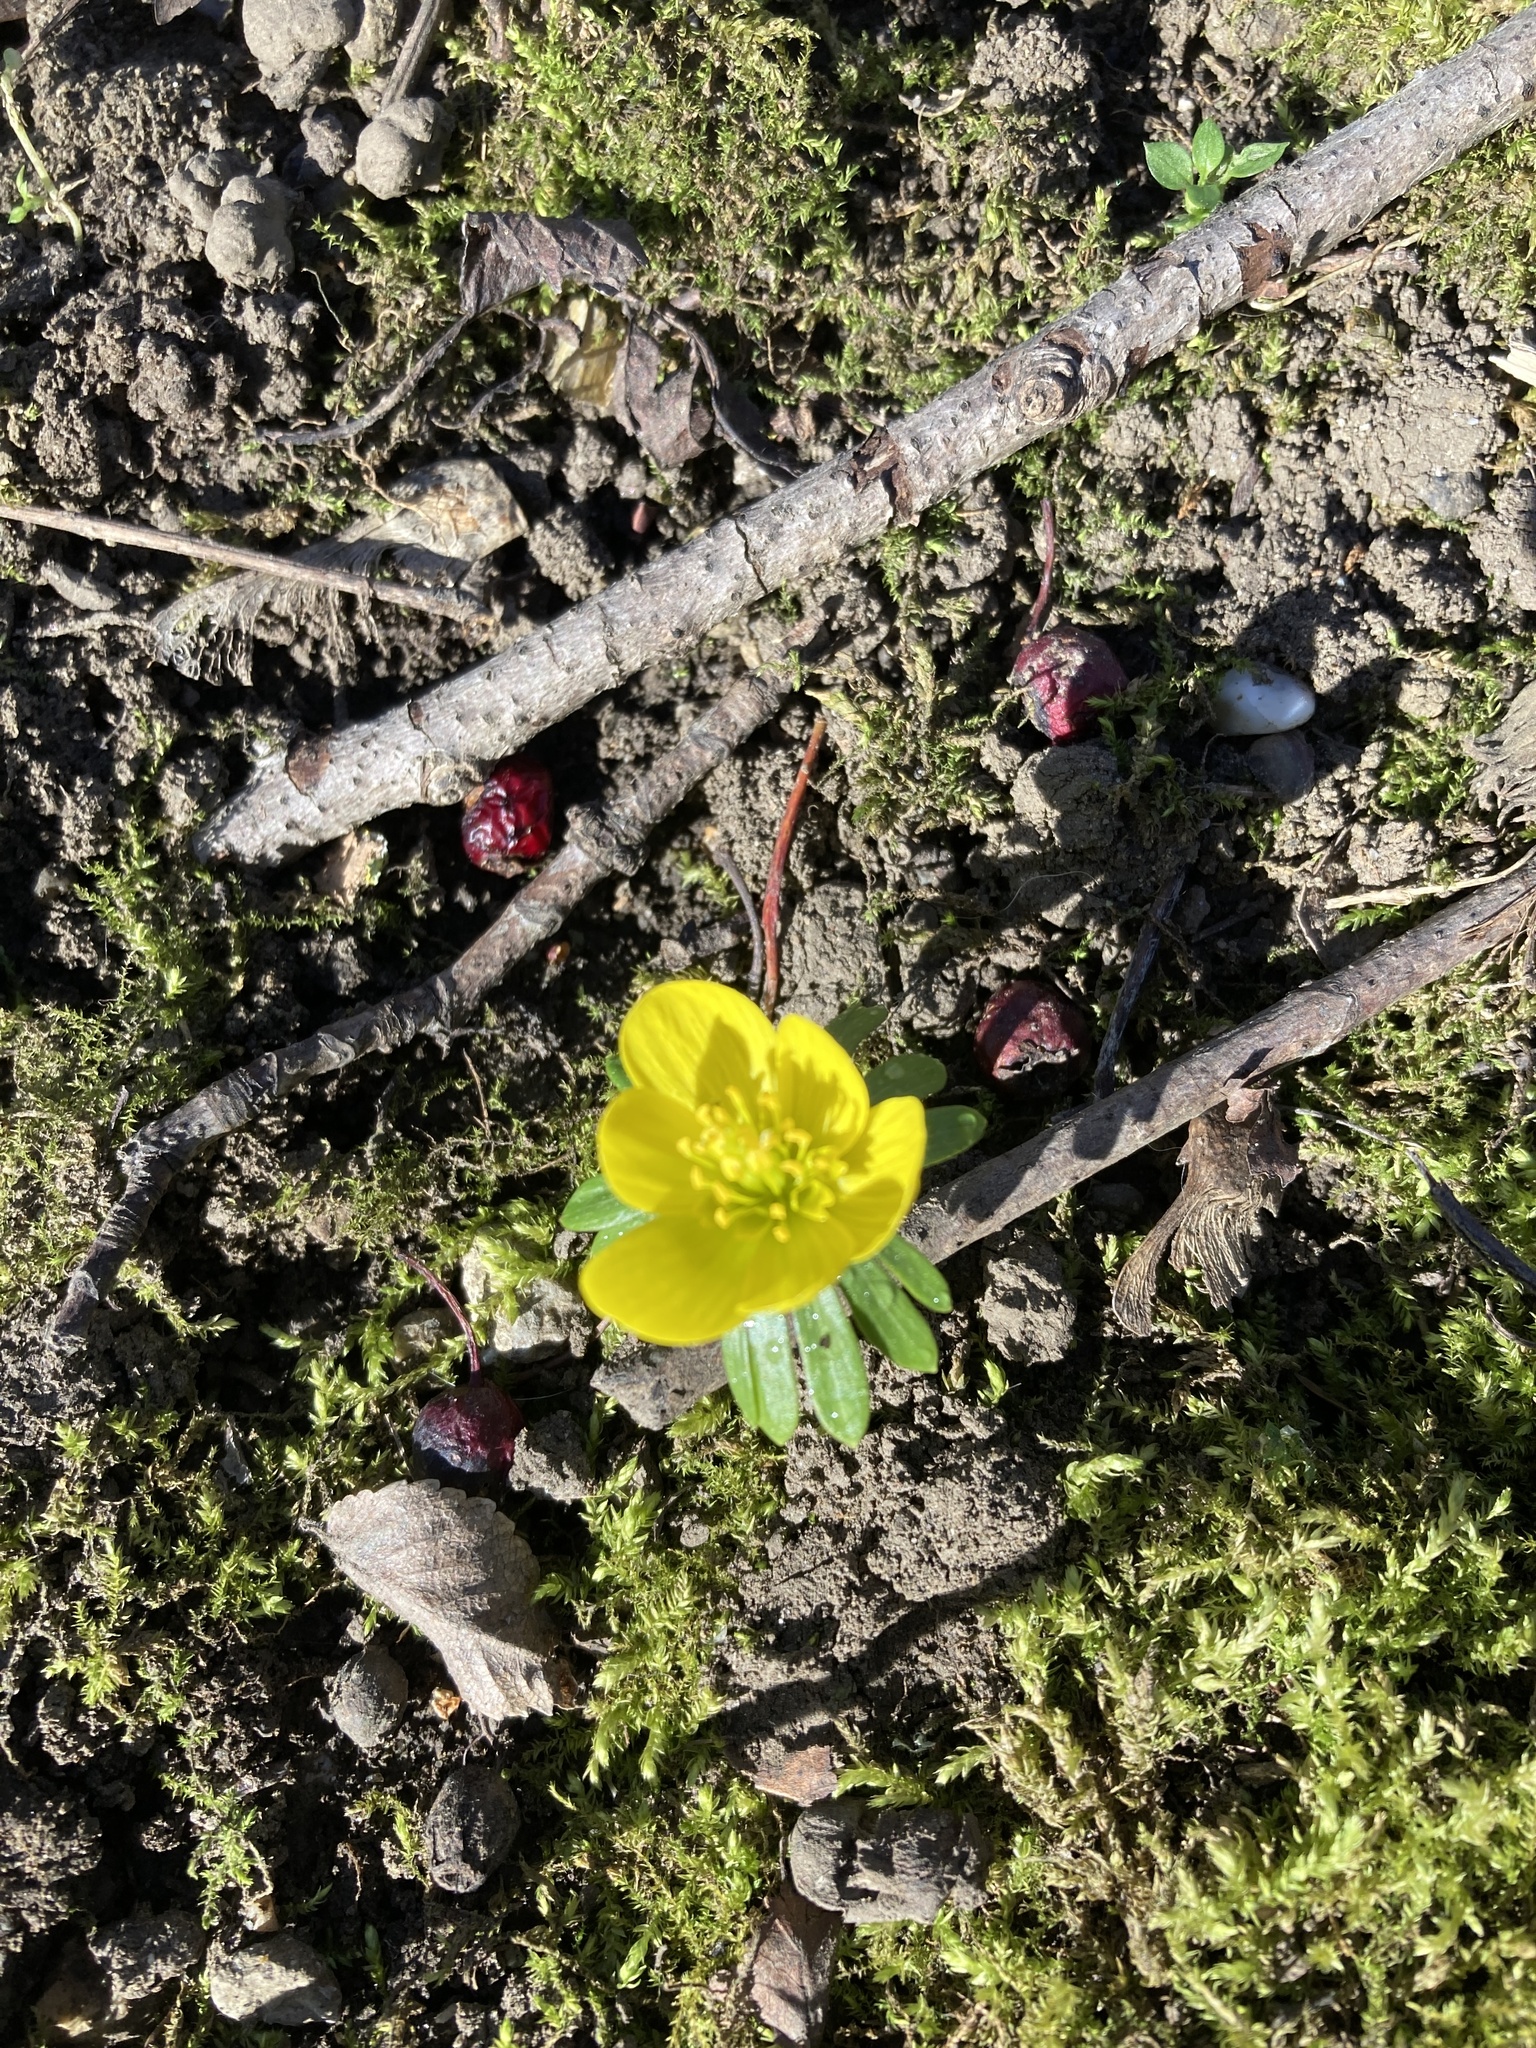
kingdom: Plantae
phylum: Tracheophyta
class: Magnoliopsida
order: Ranunculales
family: Ranunculaceae
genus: Eranthis
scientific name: Eranthis hyemalis
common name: Winter aconite
